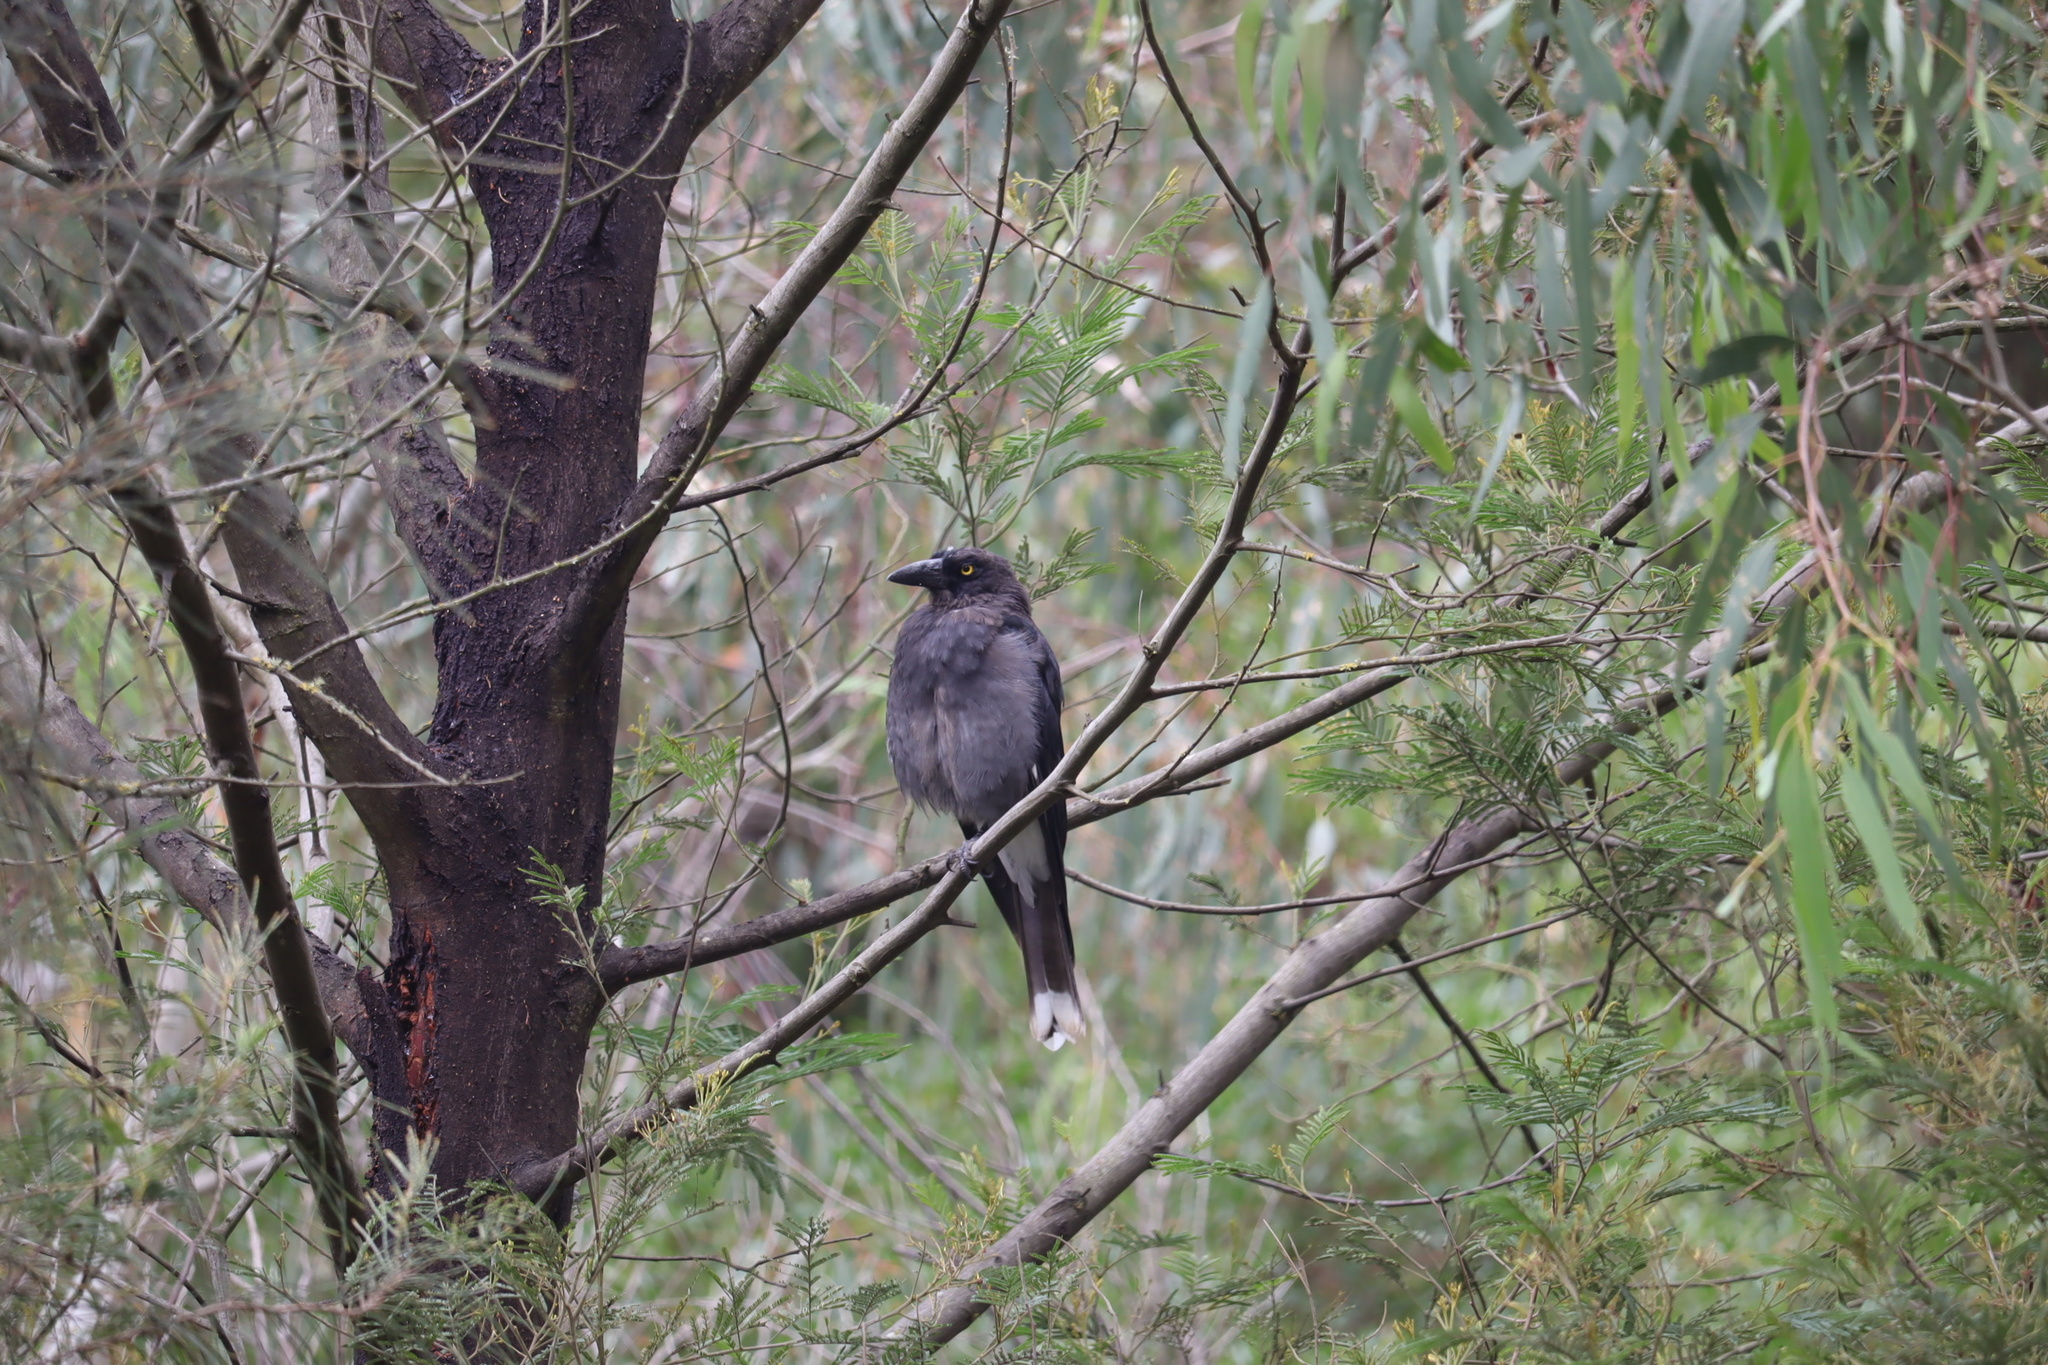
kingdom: Animalia
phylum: Chordata
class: Aves
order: Passeriformes
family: Cracticidae
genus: Strepera
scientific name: Strepera graculina
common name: Pied currawong
